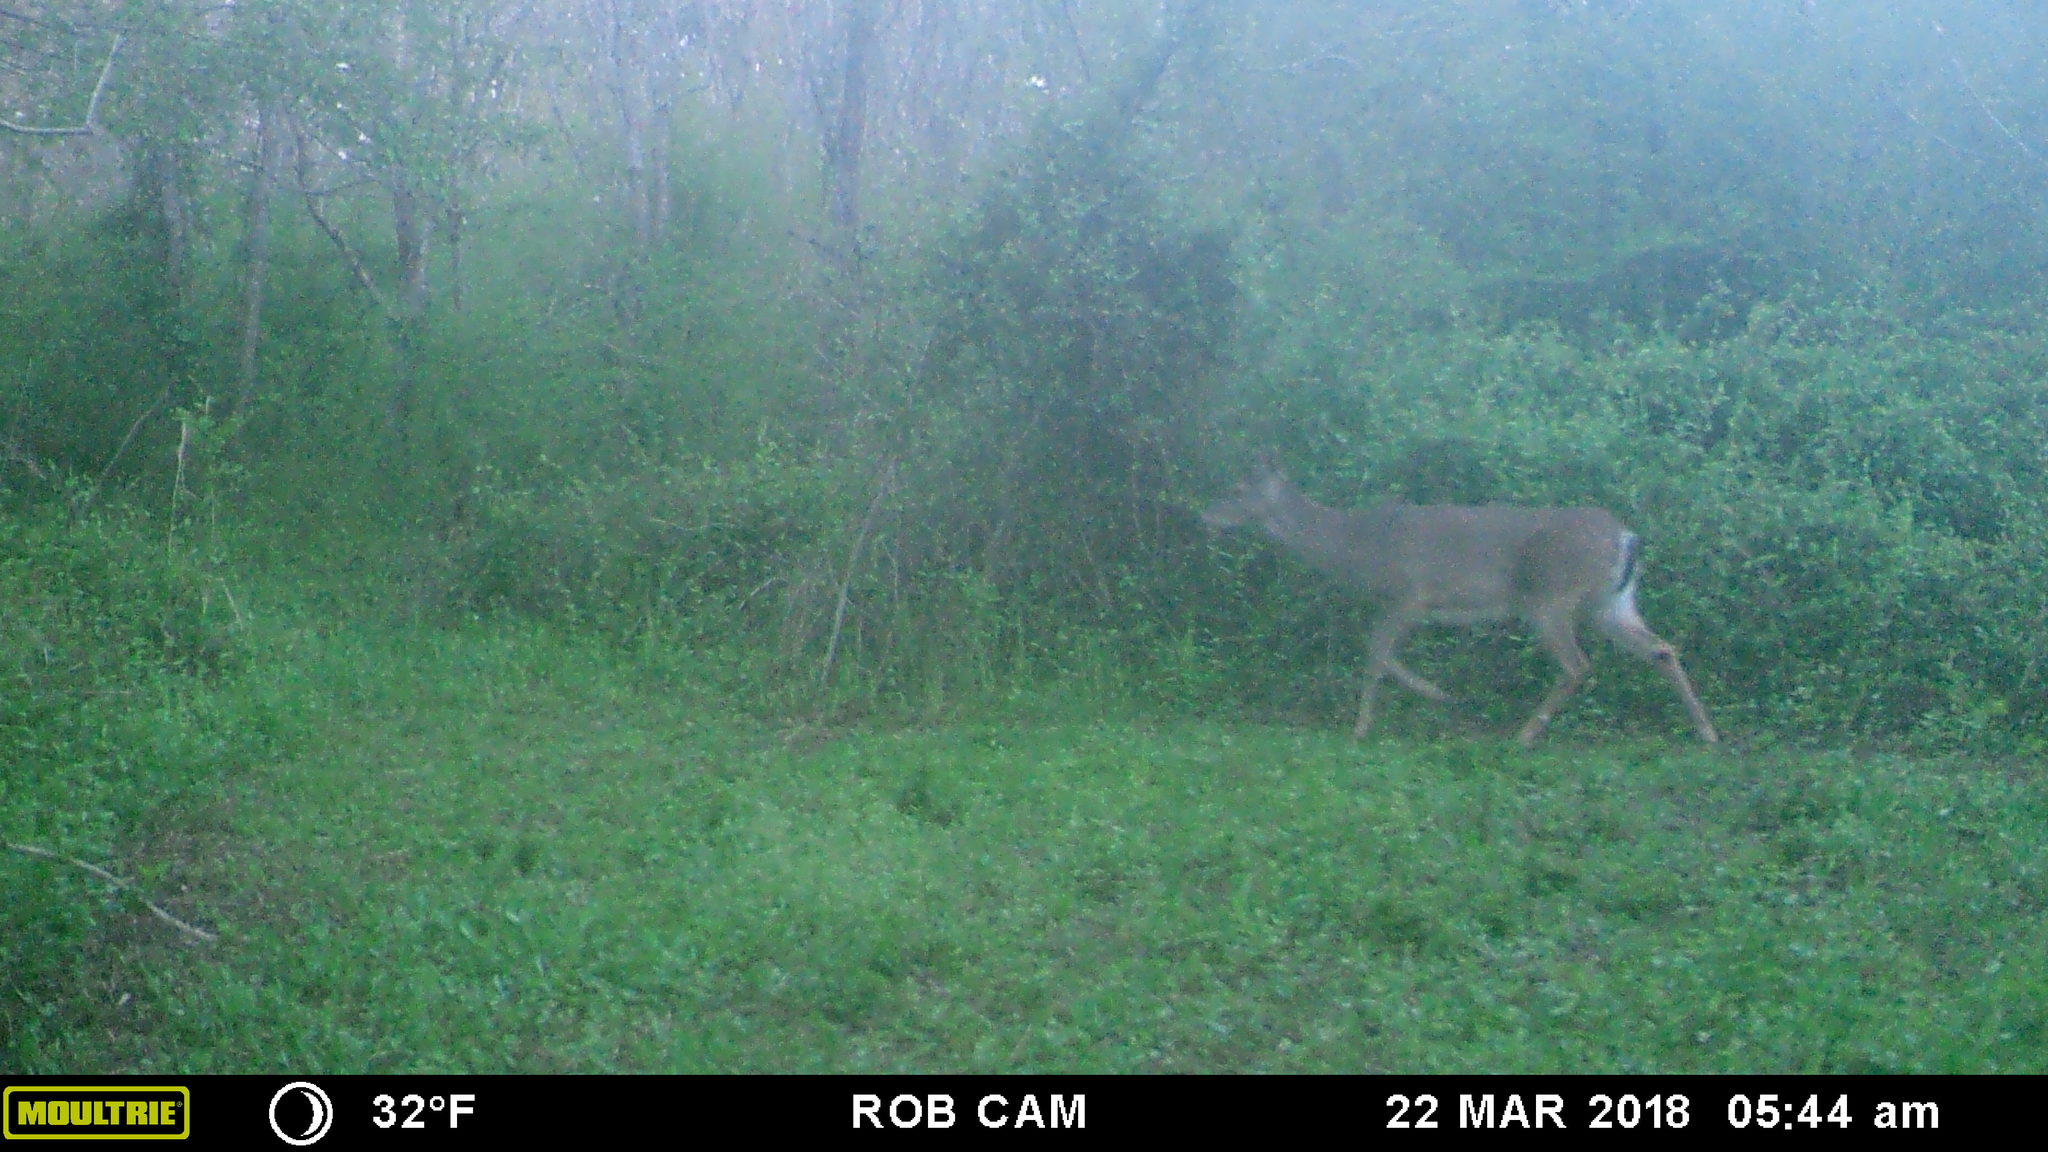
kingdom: Animalia
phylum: Chordata
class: Mammalia
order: Artiodactyla
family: Cervidae
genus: Odocoileus
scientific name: Odocoileus virginianus
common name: White-tailed deer
